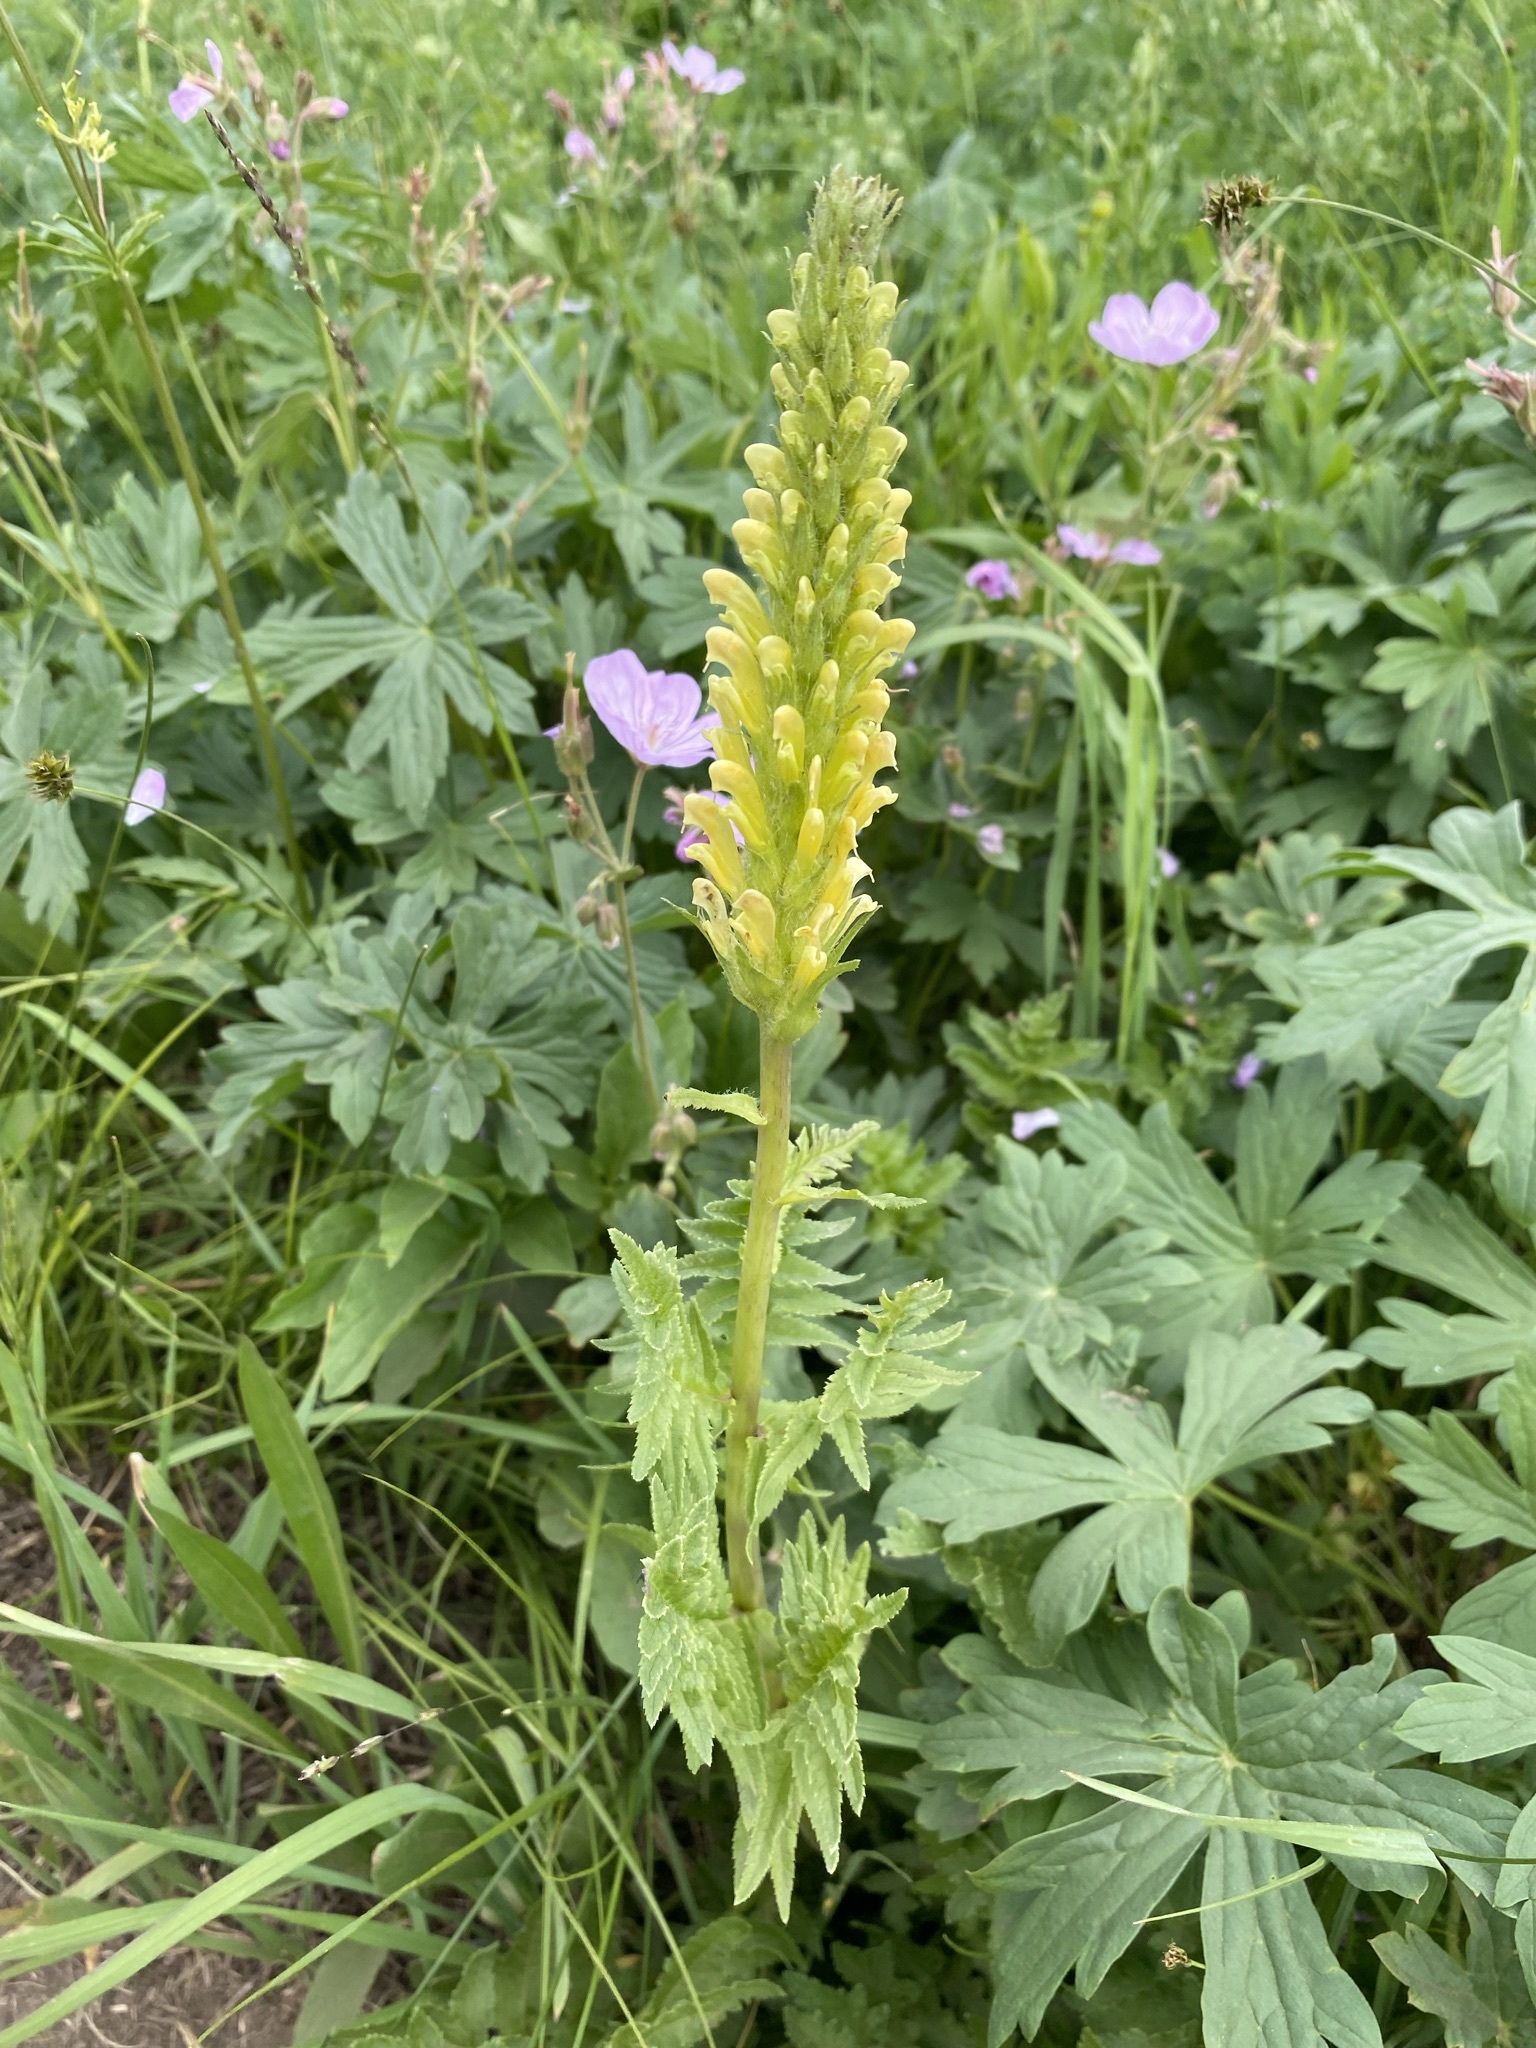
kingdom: Plantae
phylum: Tracheophyta
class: Magnoliopsida
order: Lamiales
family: Orobanchaceae
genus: Pedicularis
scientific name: Pedicularis bracteosa
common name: Bracted lousewort
